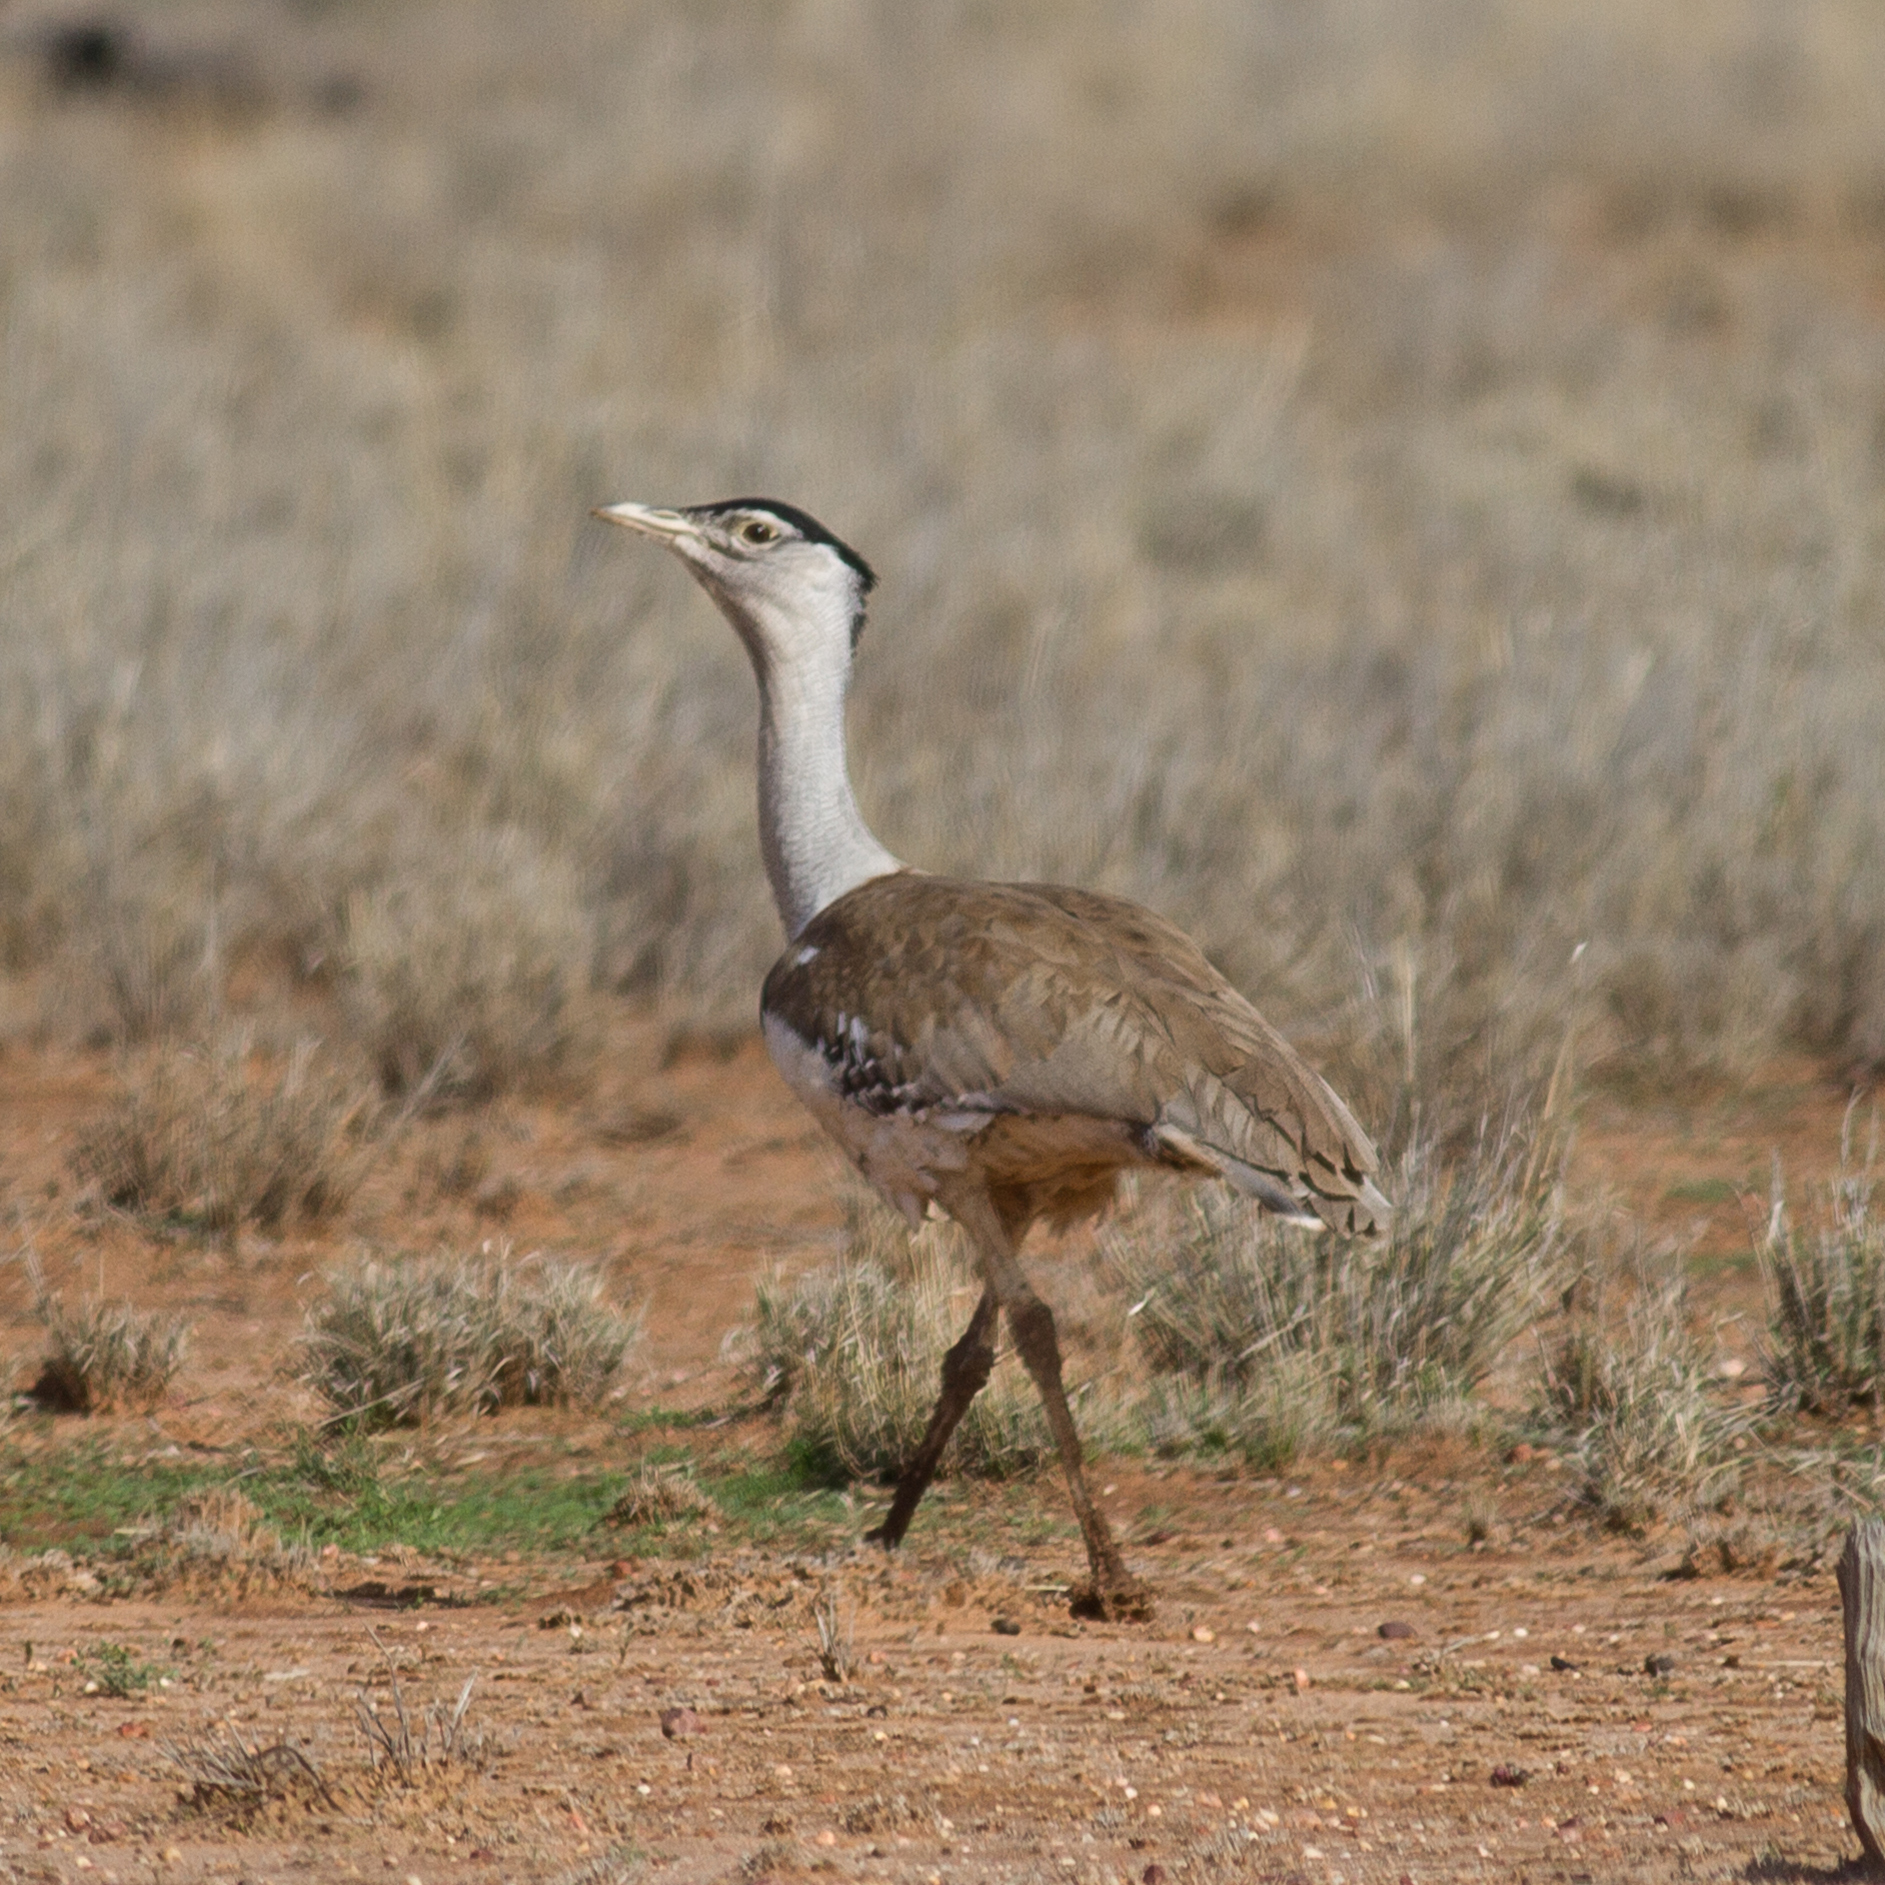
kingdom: Animalia
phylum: Chordata
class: Aves
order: Otidiformes
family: Otididae
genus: Ardeotis
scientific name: Ardeotis australis
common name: Australian bustard
